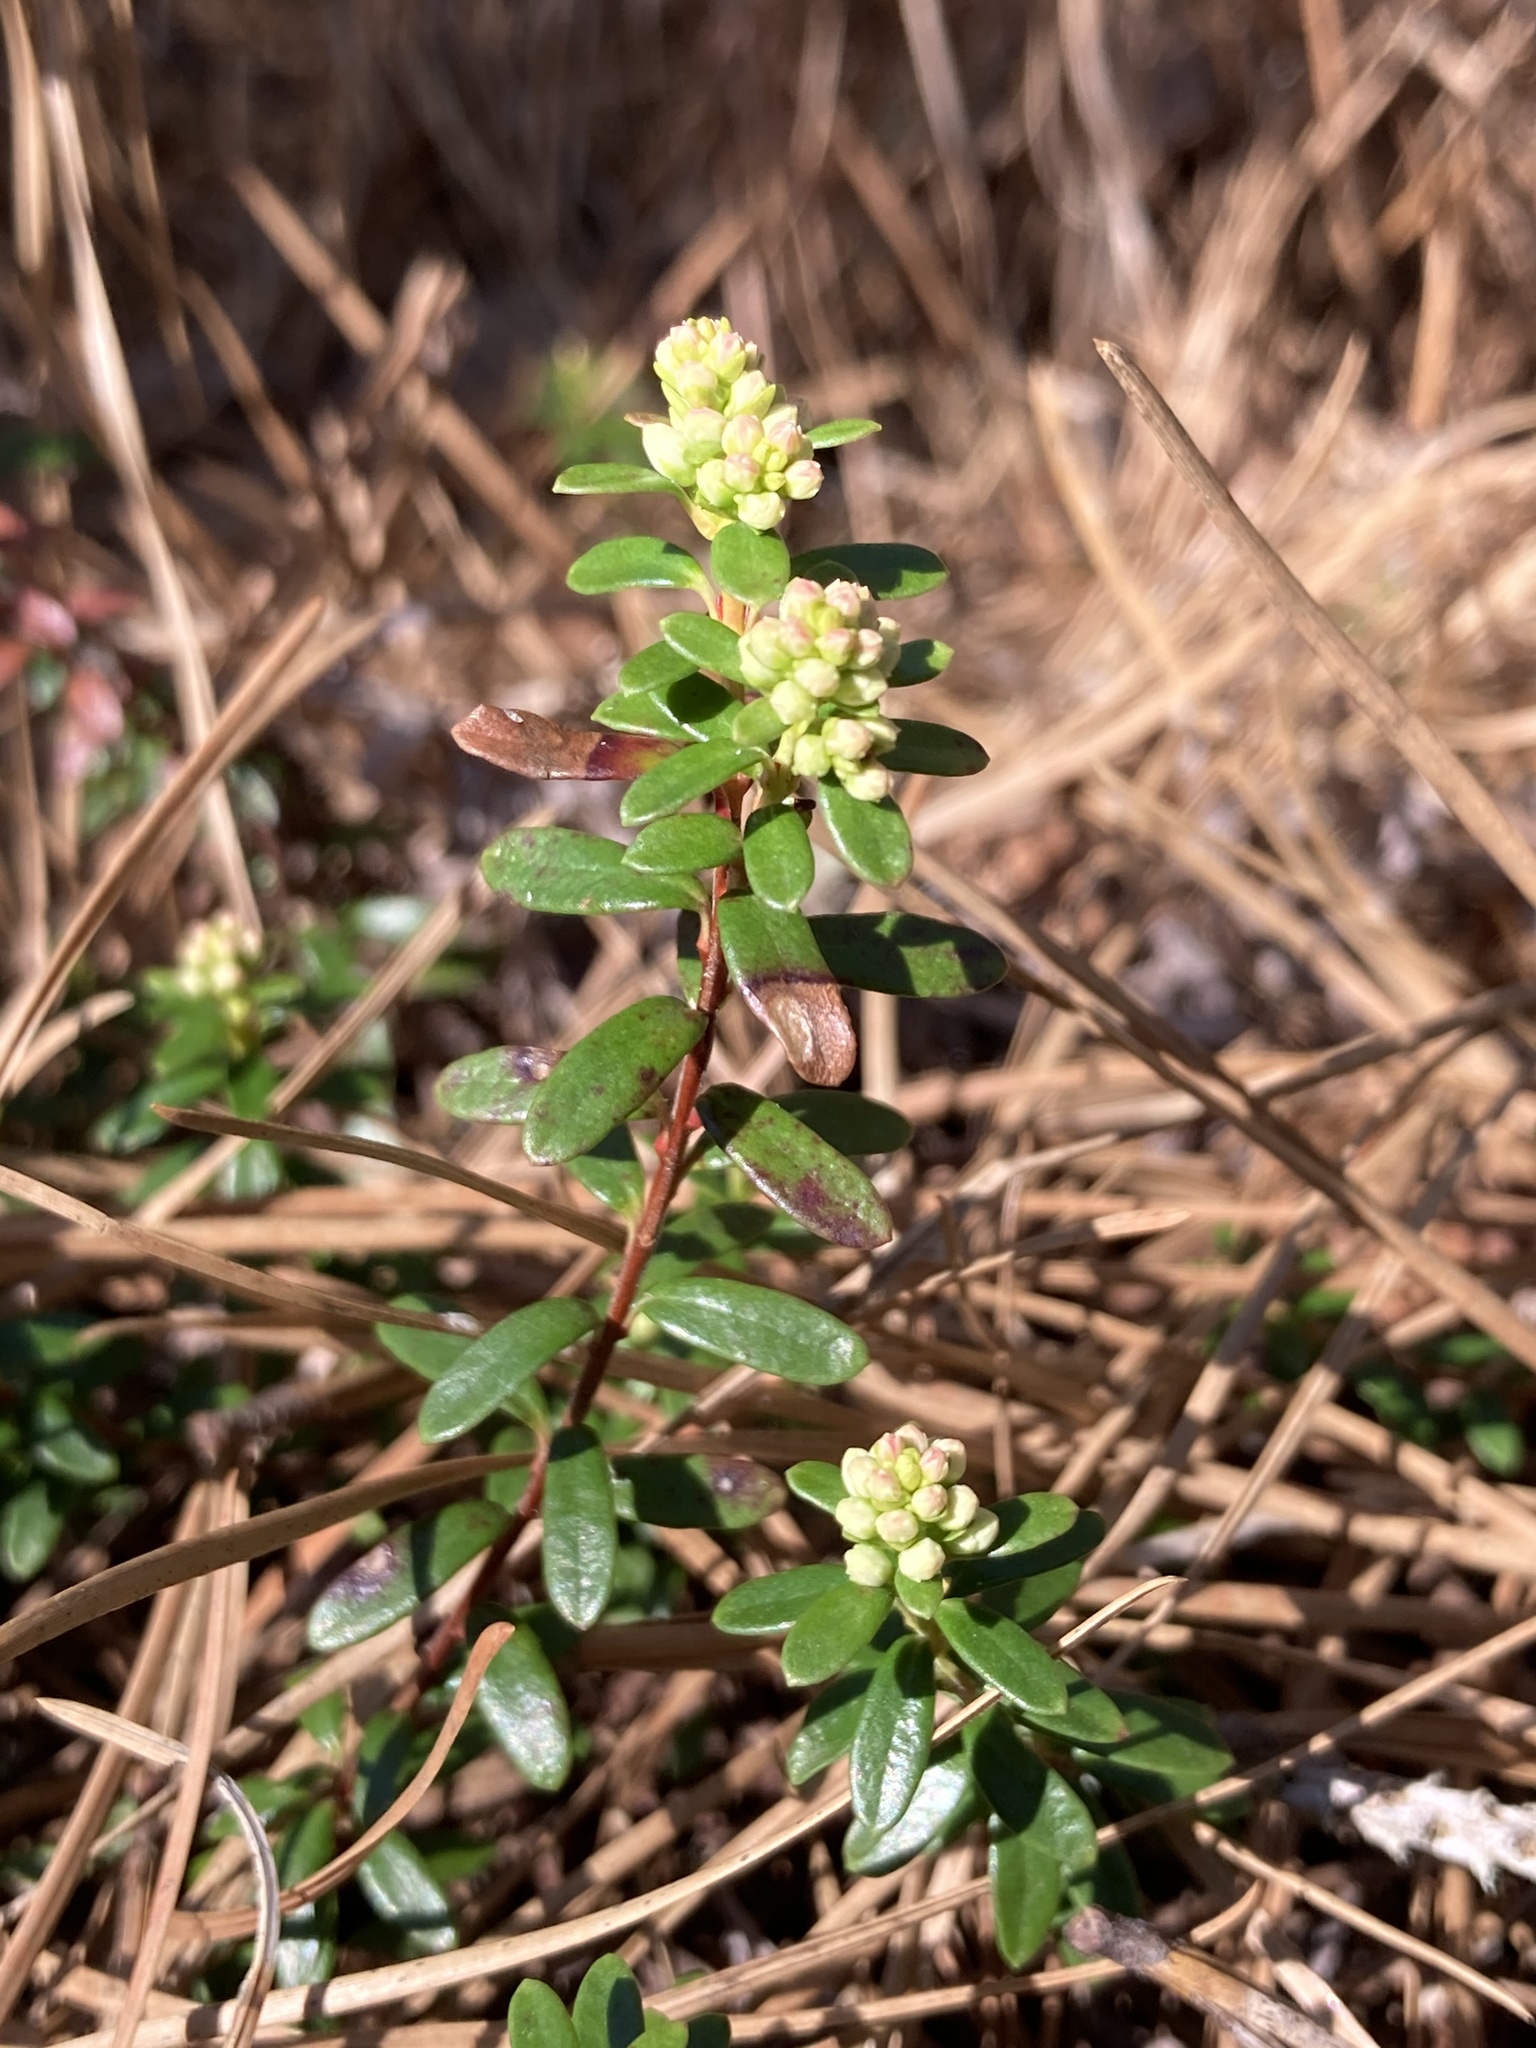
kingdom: Plantae
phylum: Tracheophyta
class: Magnoliopsida
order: Ericales
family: Ericaceae
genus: Kalmia
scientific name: Kalmia buxifolia
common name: Sandmyrtle
